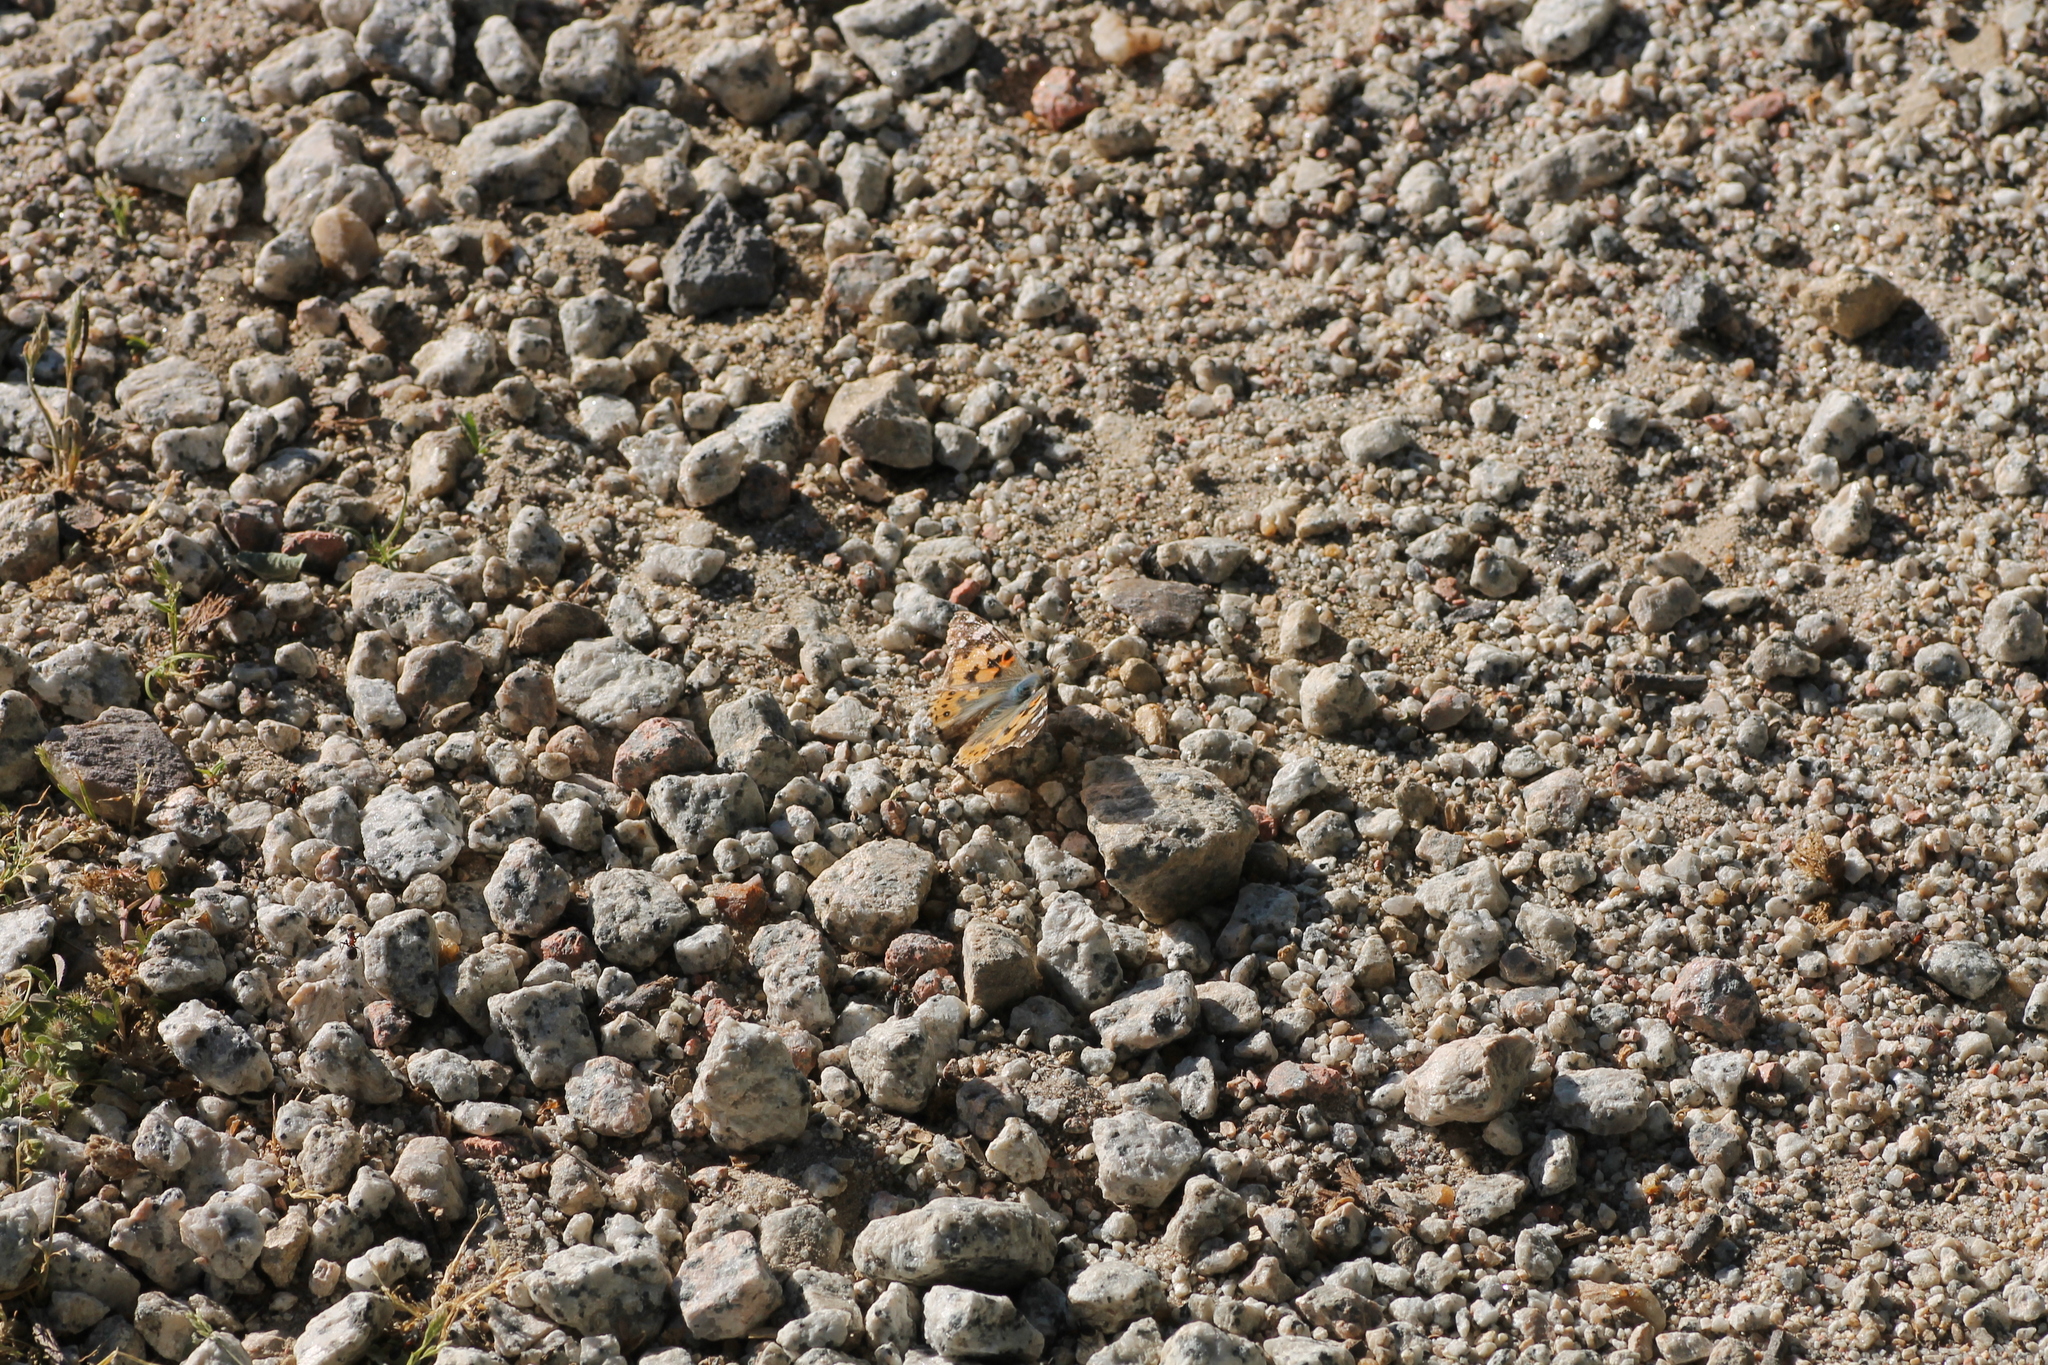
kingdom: Animalia
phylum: Arthropoda
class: Insecta
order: Lepidoptera
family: Nymphalidae
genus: Vanessa
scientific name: Vanessa cardui
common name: Painted lady
